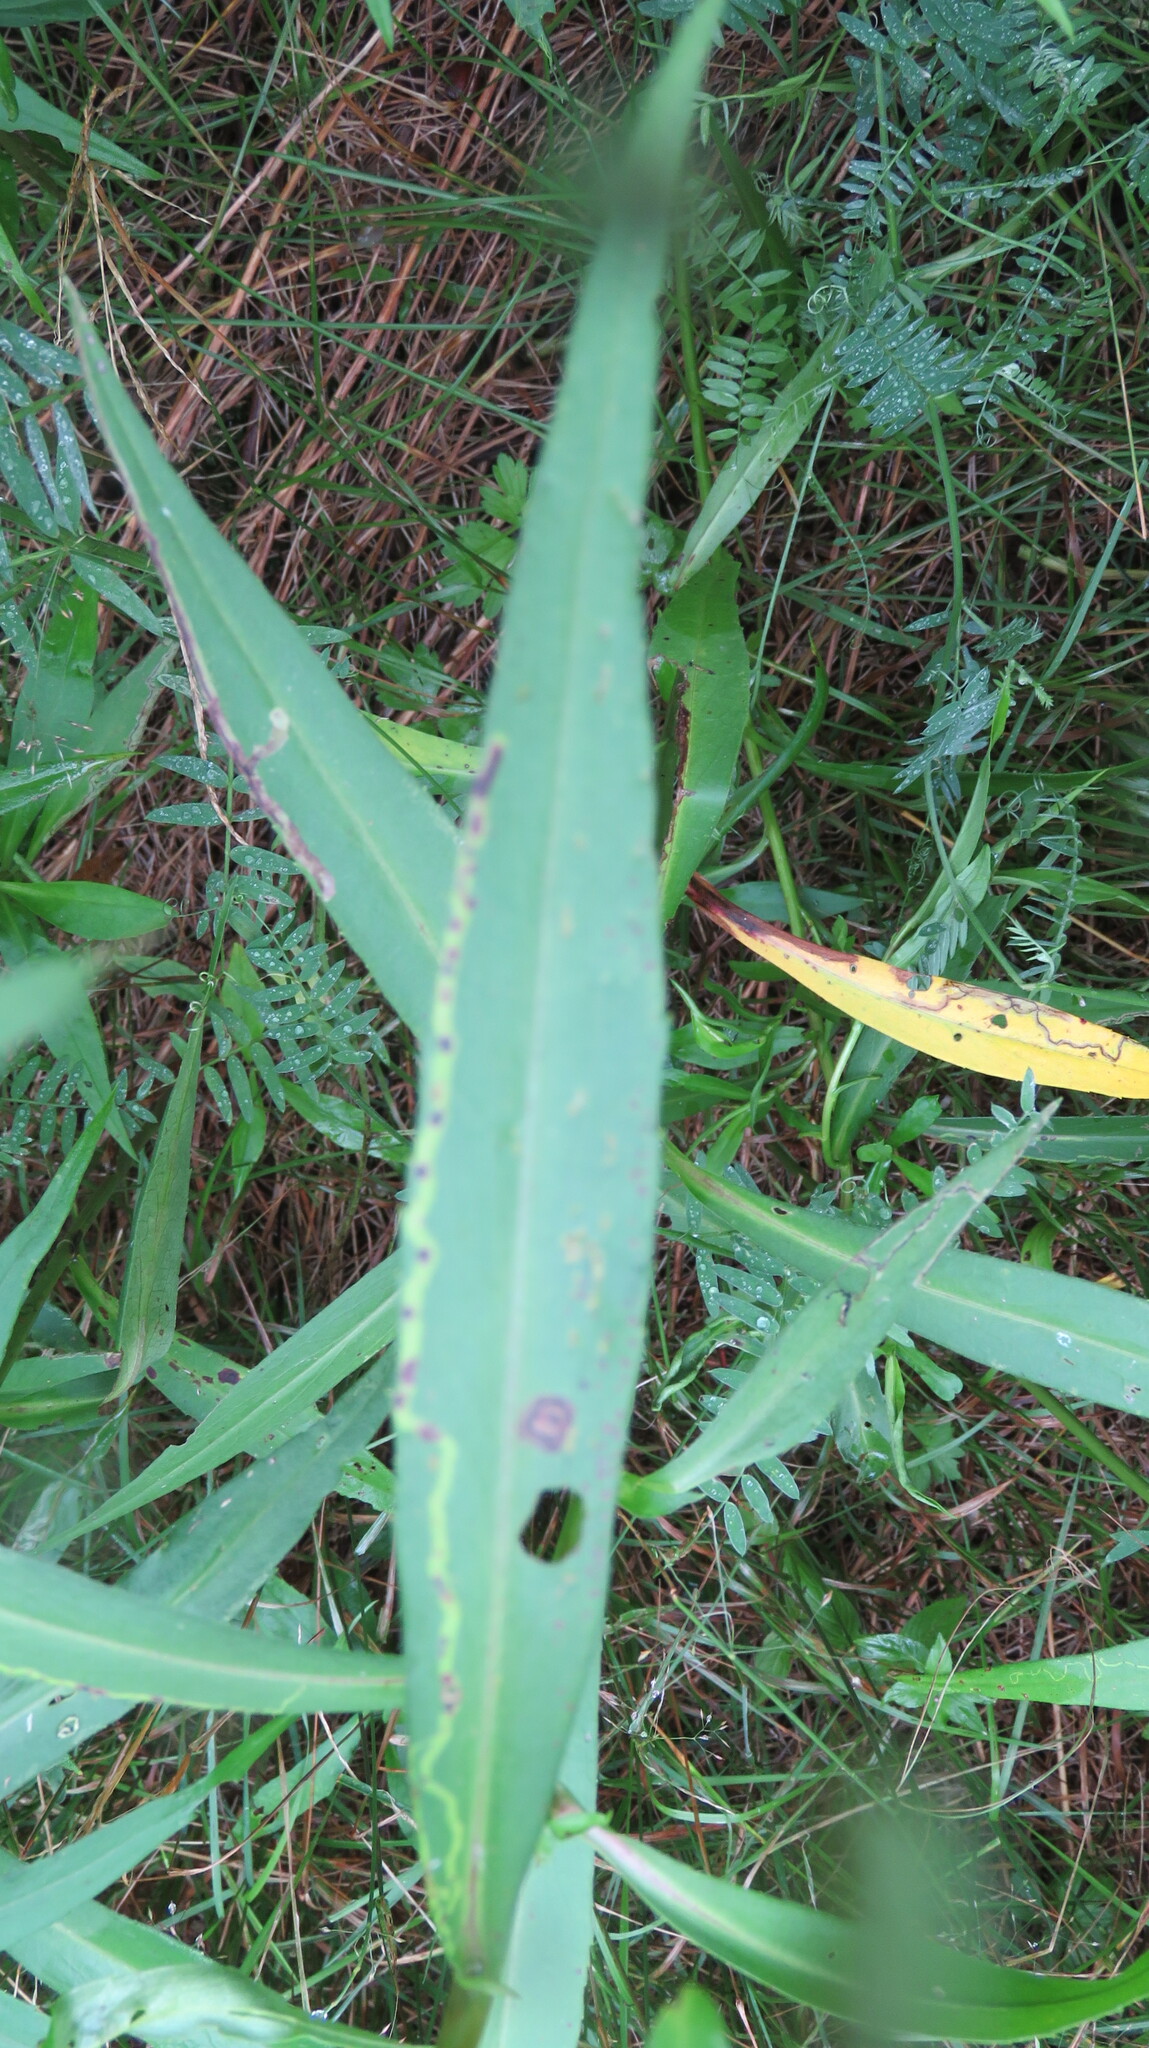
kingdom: Animalia
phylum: Arthropoda
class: Insecta
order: Diptera
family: Agromyzidae
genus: Ophiomyia
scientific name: Ophiomyia parda
